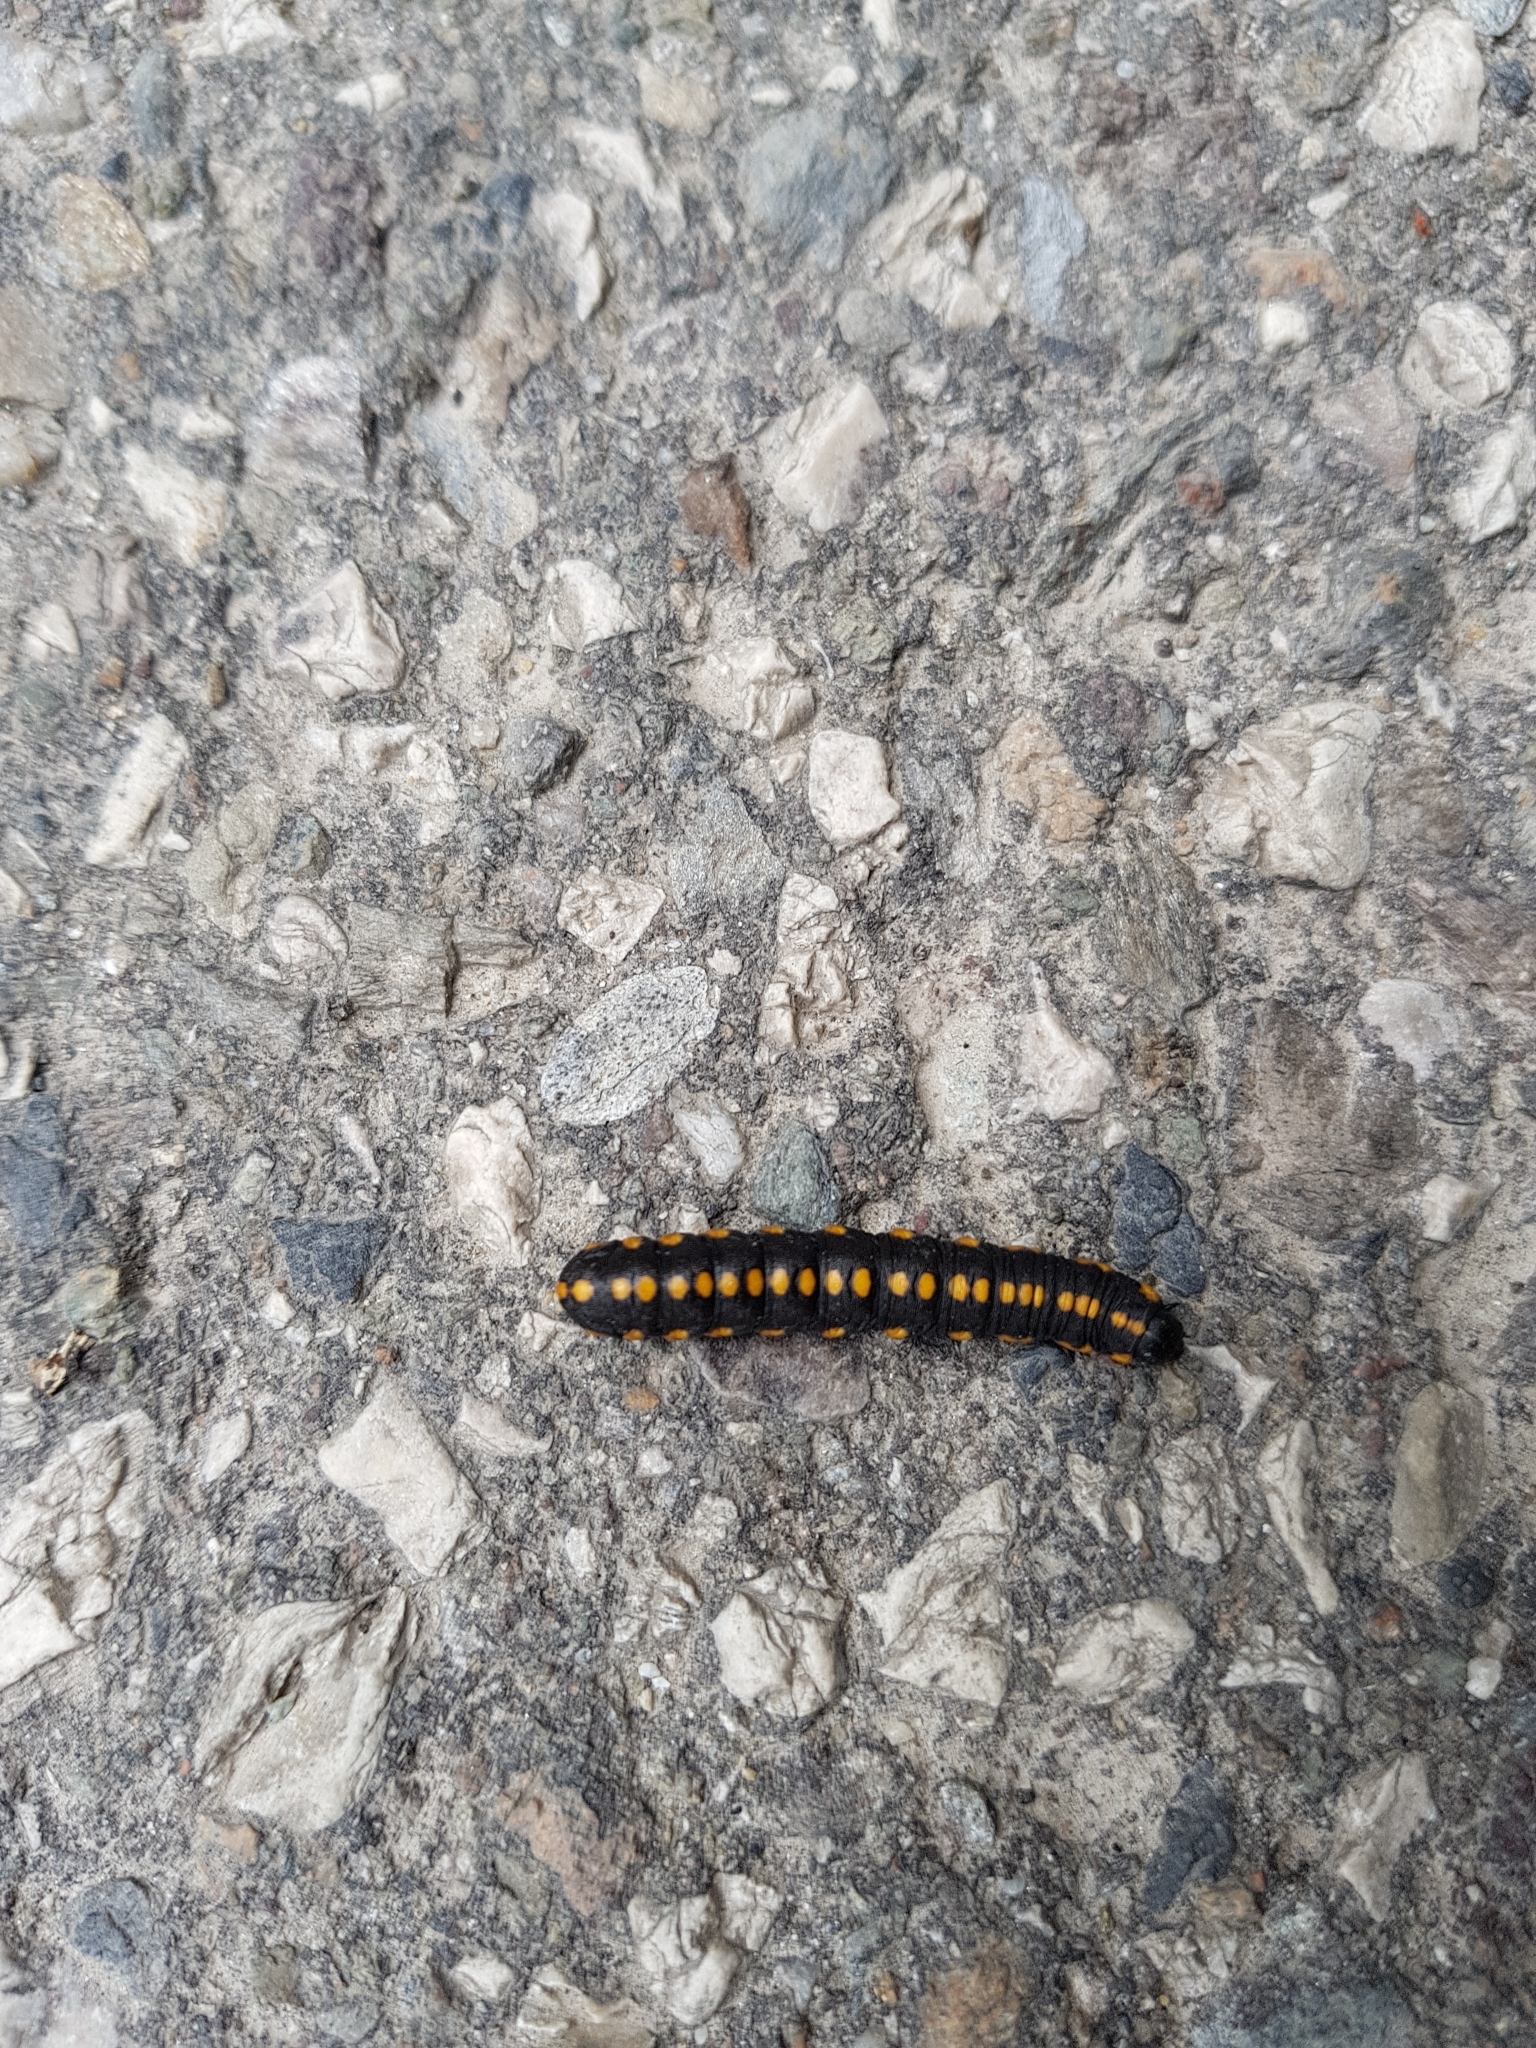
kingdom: Animalia
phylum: Arthropoda
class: Insecta
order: Lepidoptera
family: Noctuidae
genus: Cucullia
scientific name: Cucullia lucifuga
